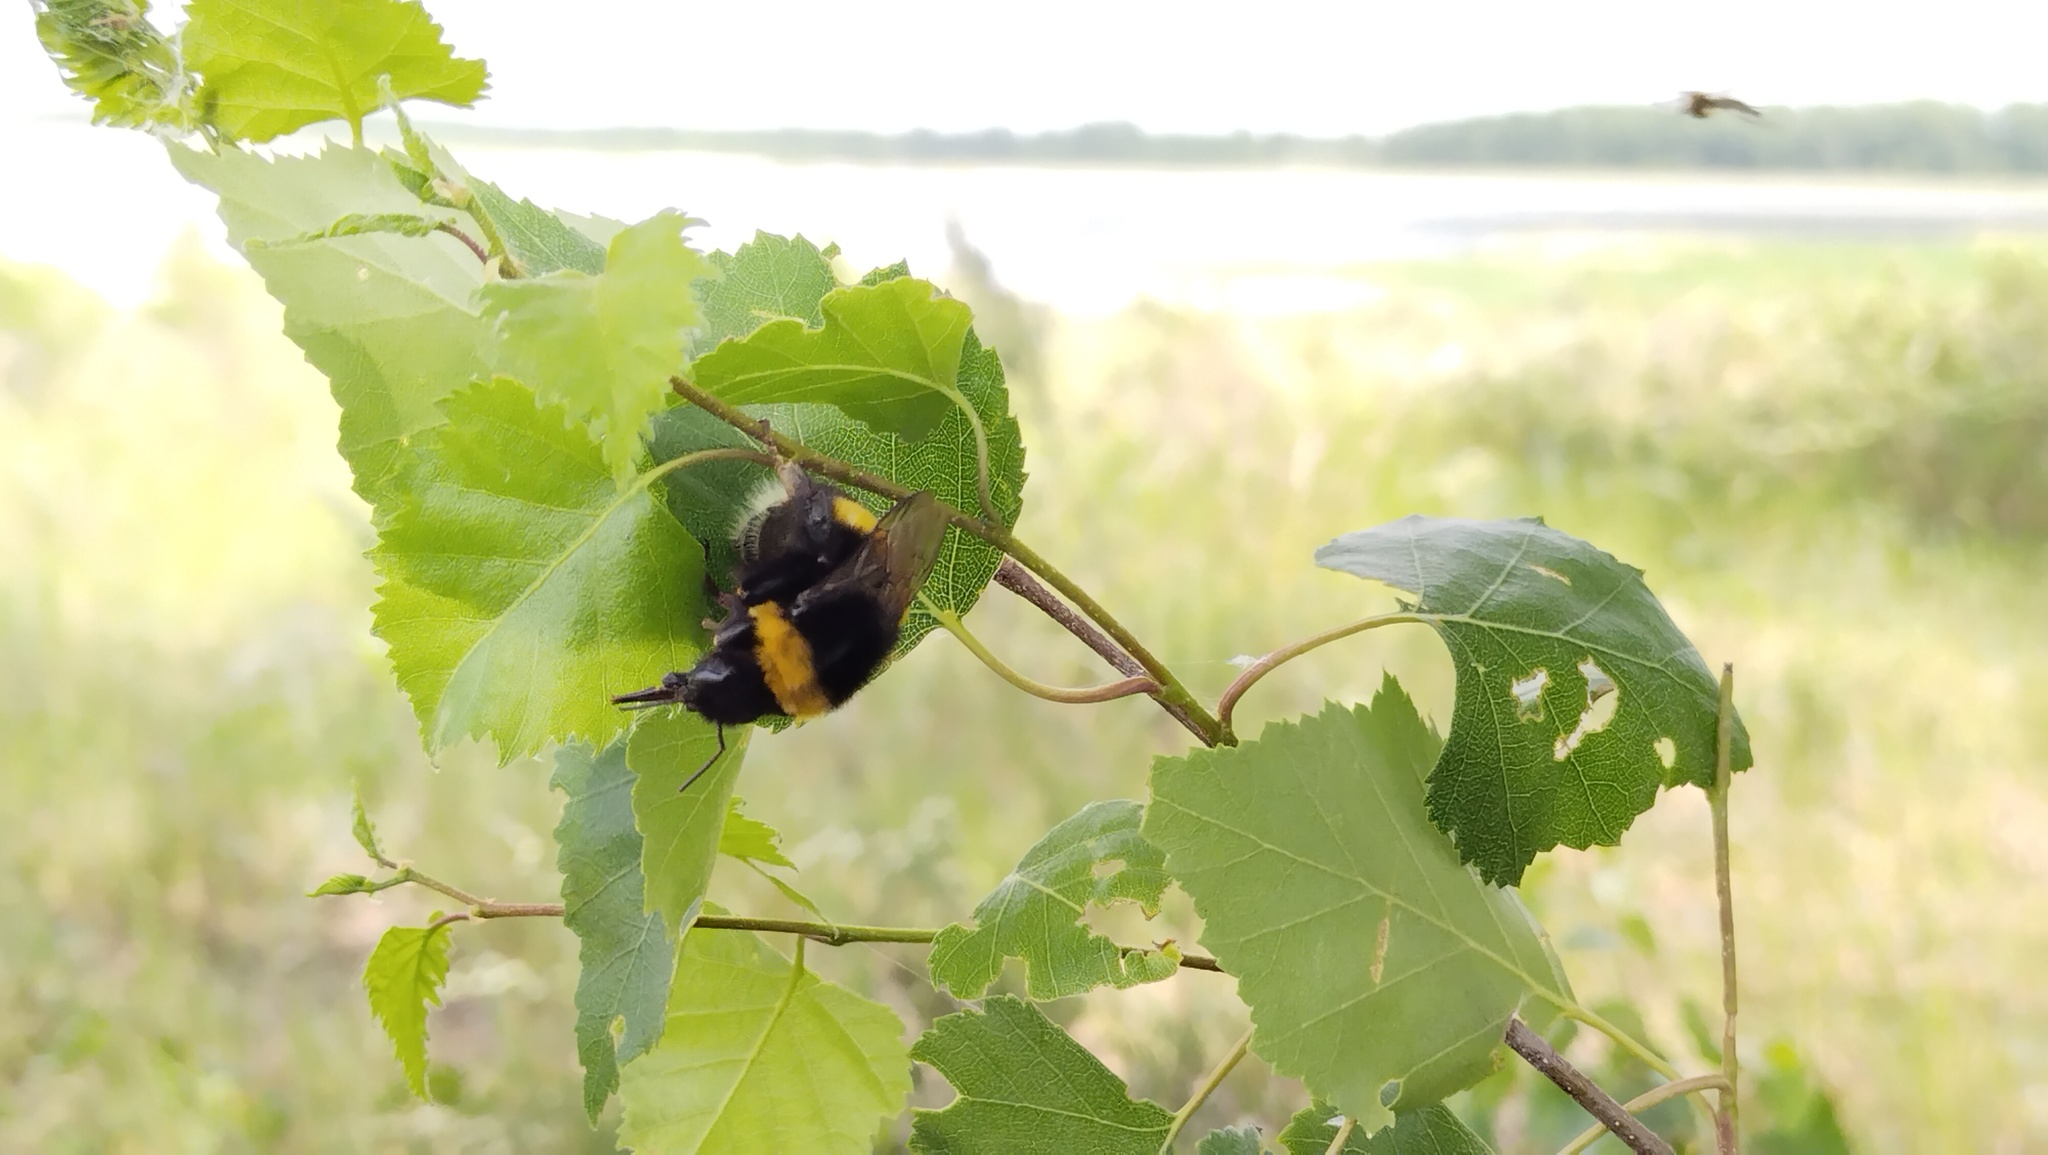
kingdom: Animalia
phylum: Arthropoda
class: Insecta
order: Hymenoptera
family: Apidae
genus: Bombus
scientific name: Bombus
